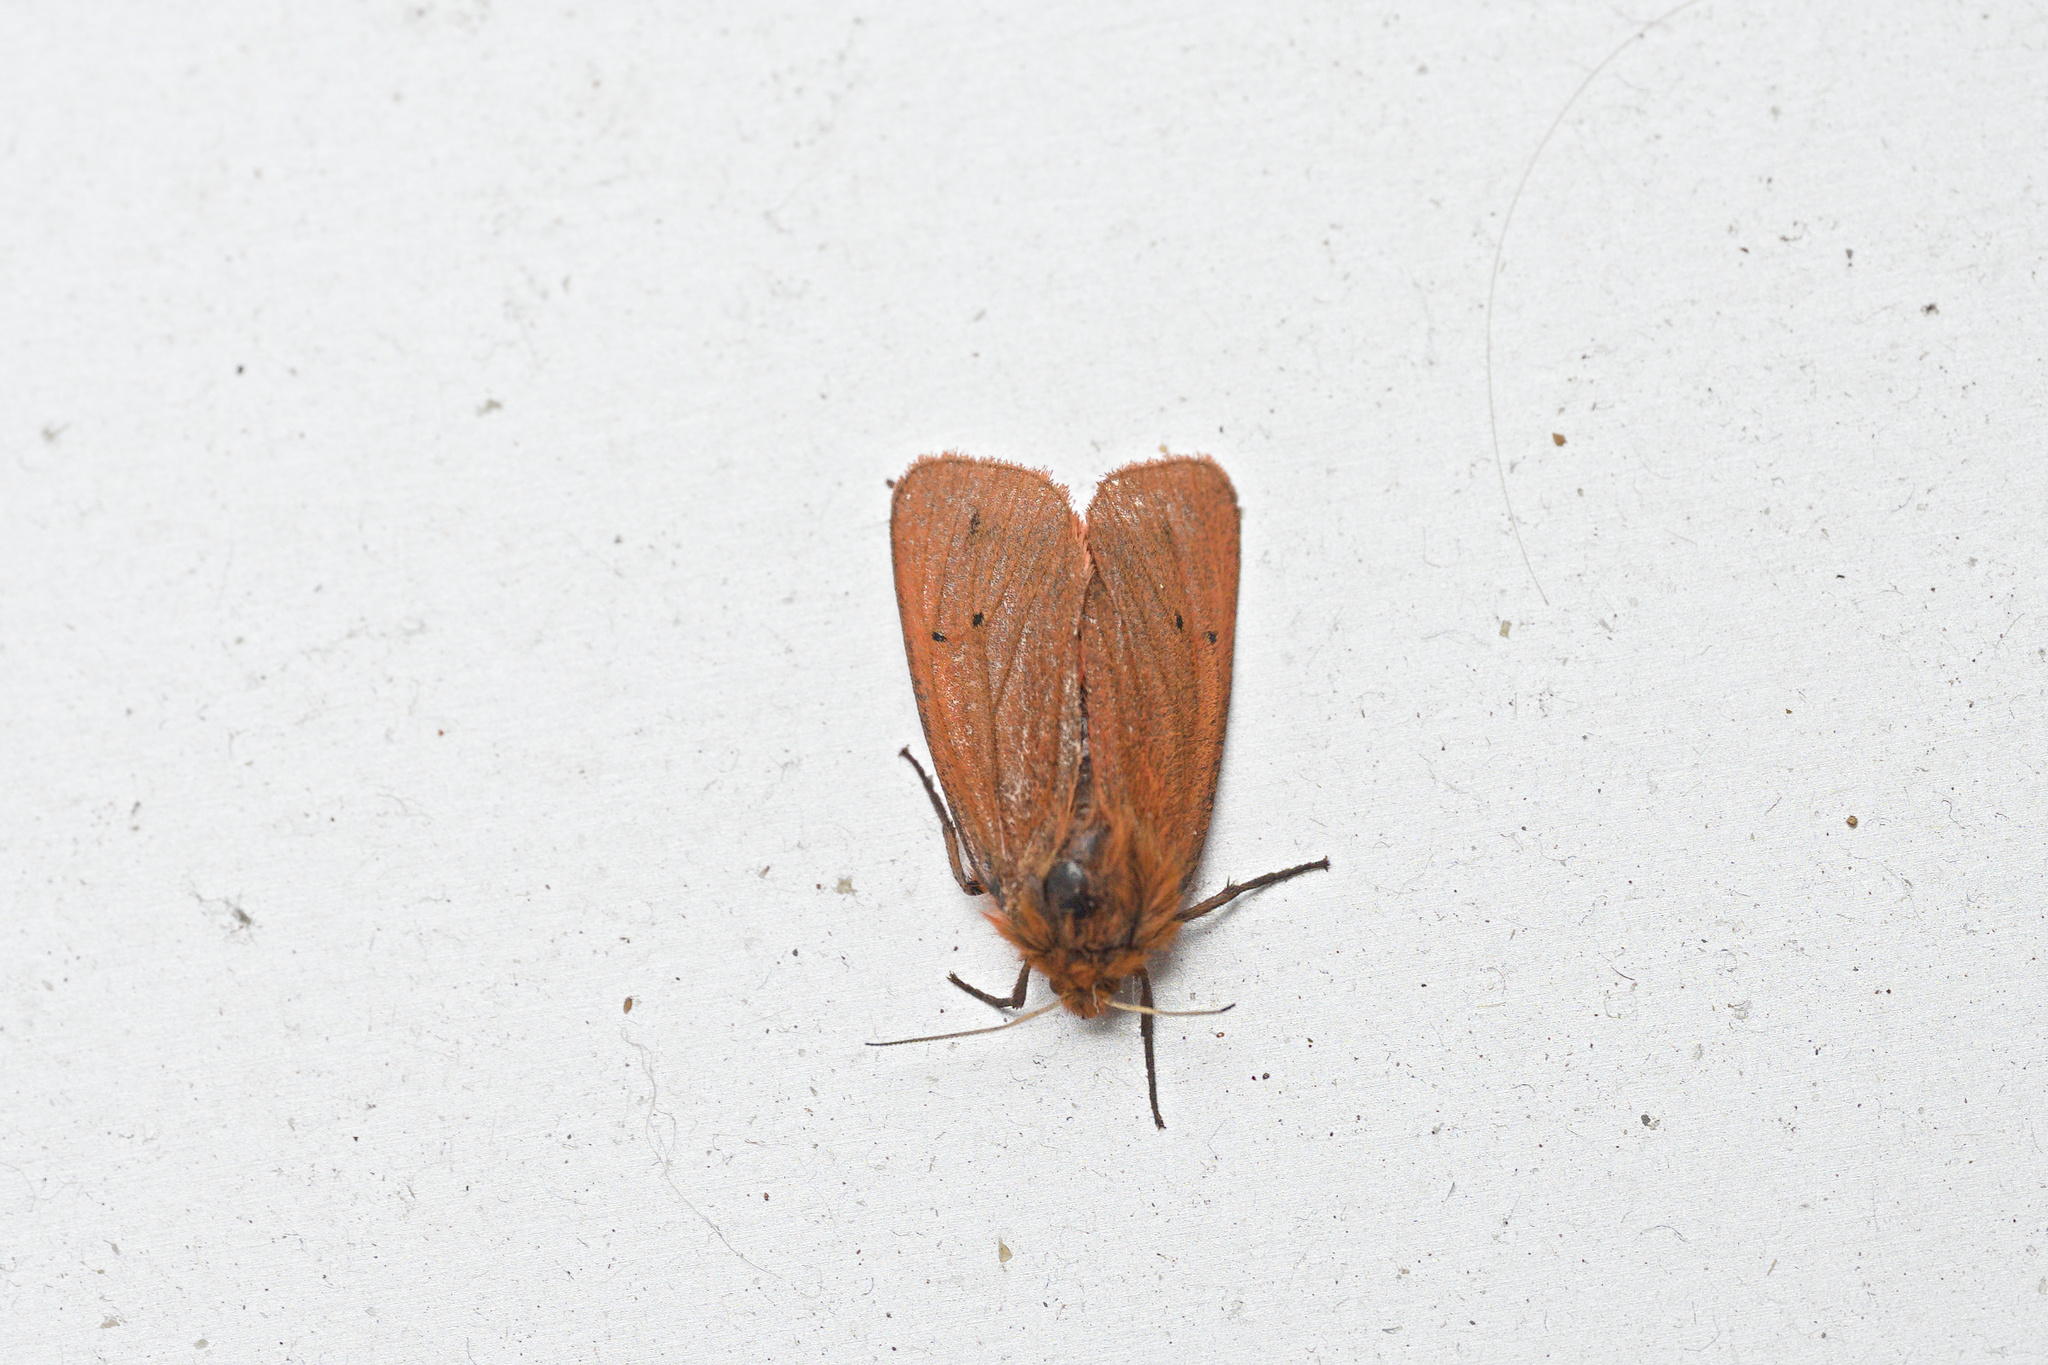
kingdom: Animalia
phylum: Arthropoda
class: Insecta
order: Lepidoptera
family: Erebidae
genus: Phragmatobia
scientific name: Phragmatobia fuliginosa
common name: Ruby tiger
